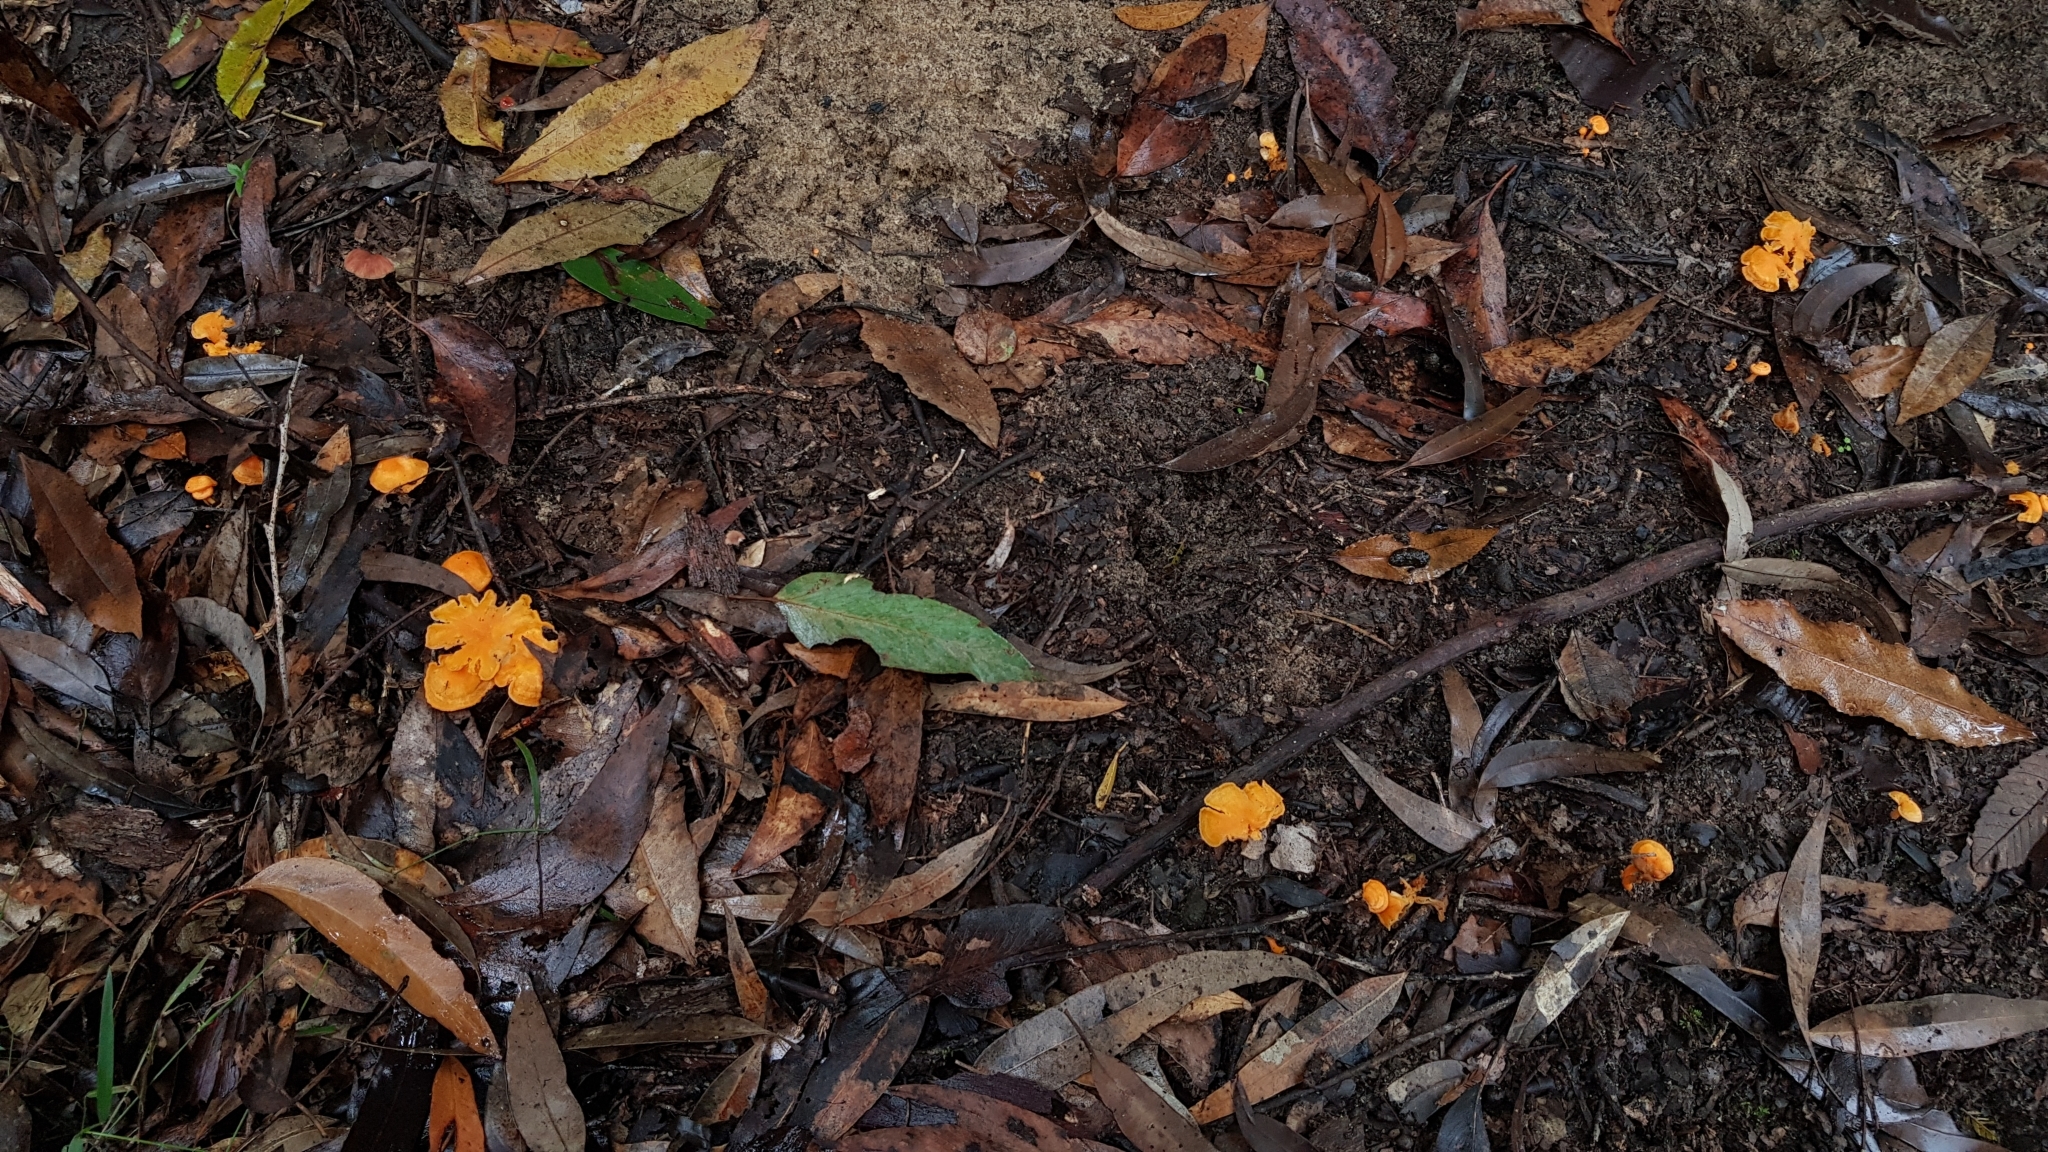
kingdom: Fungi
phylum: Basidiomycota
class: Agaricomycetes
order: Cantharellales
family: Hydnaceae
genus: Cantharellus
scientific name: Cantharellus
